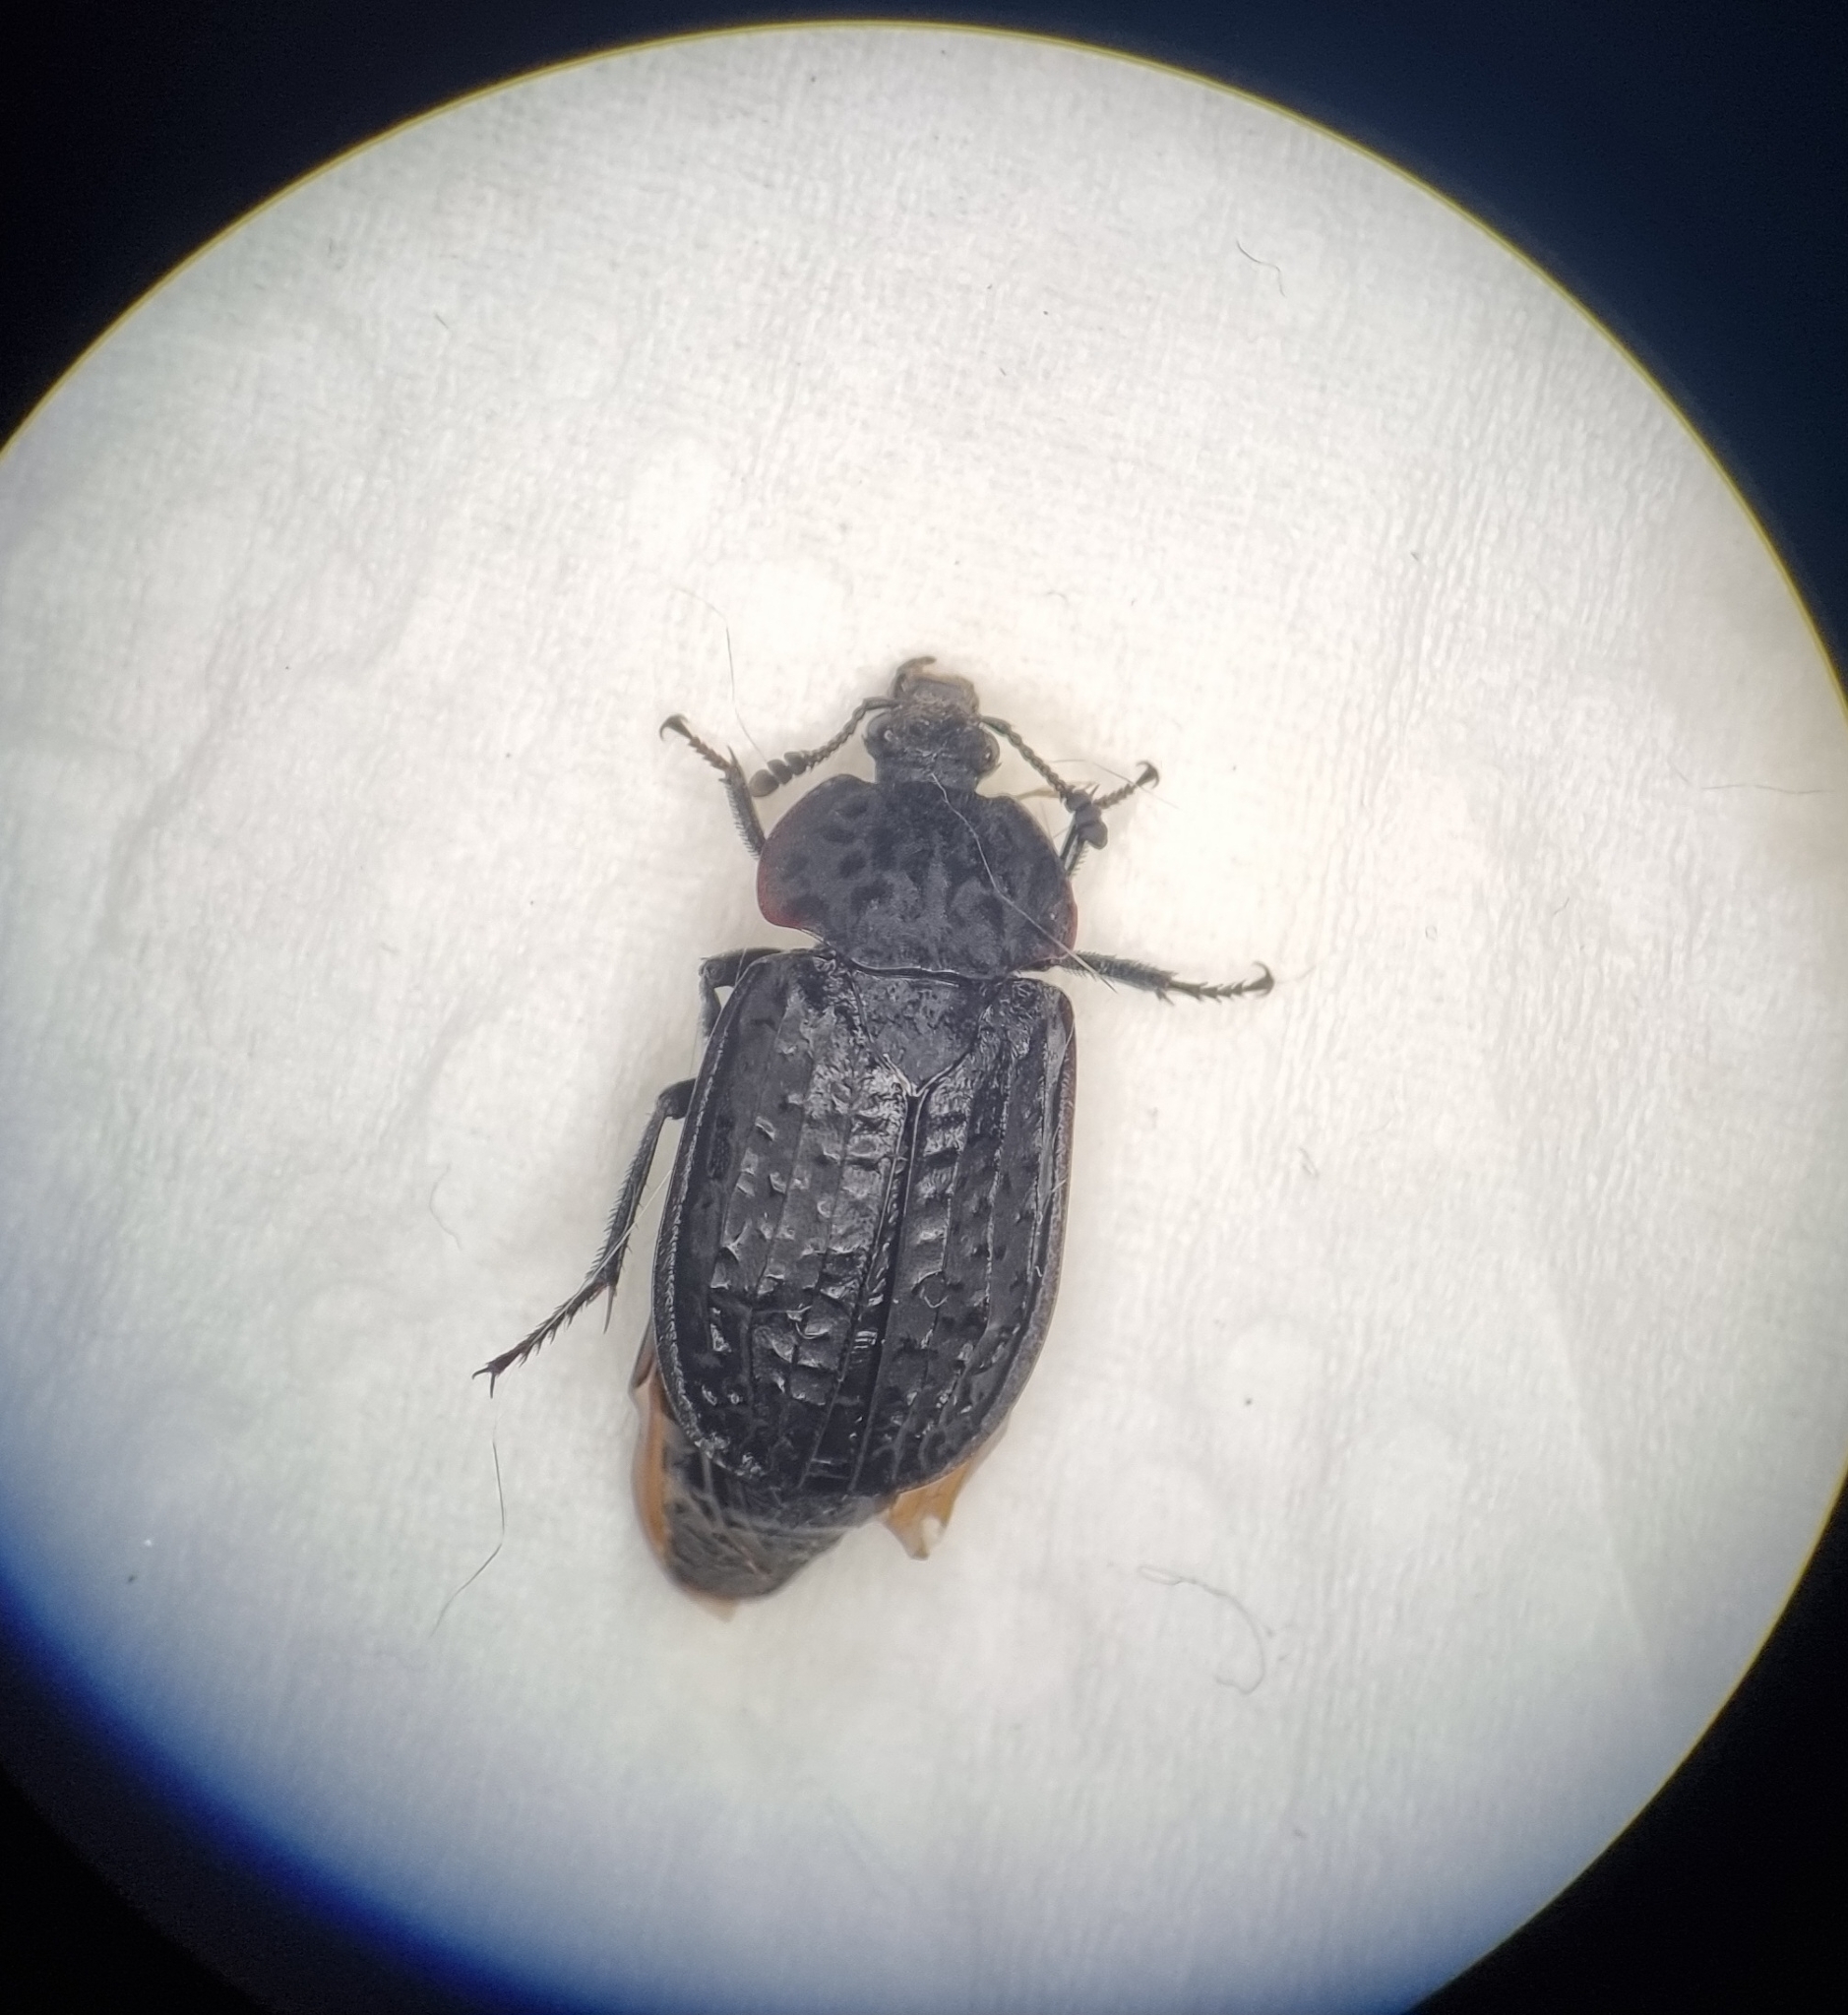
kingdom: Animalia
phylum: Arthropoda
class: Insecta
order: Coleoptera
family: Staphylinidae
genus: Thanatophilus
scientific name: Thanatophilus rugosus
